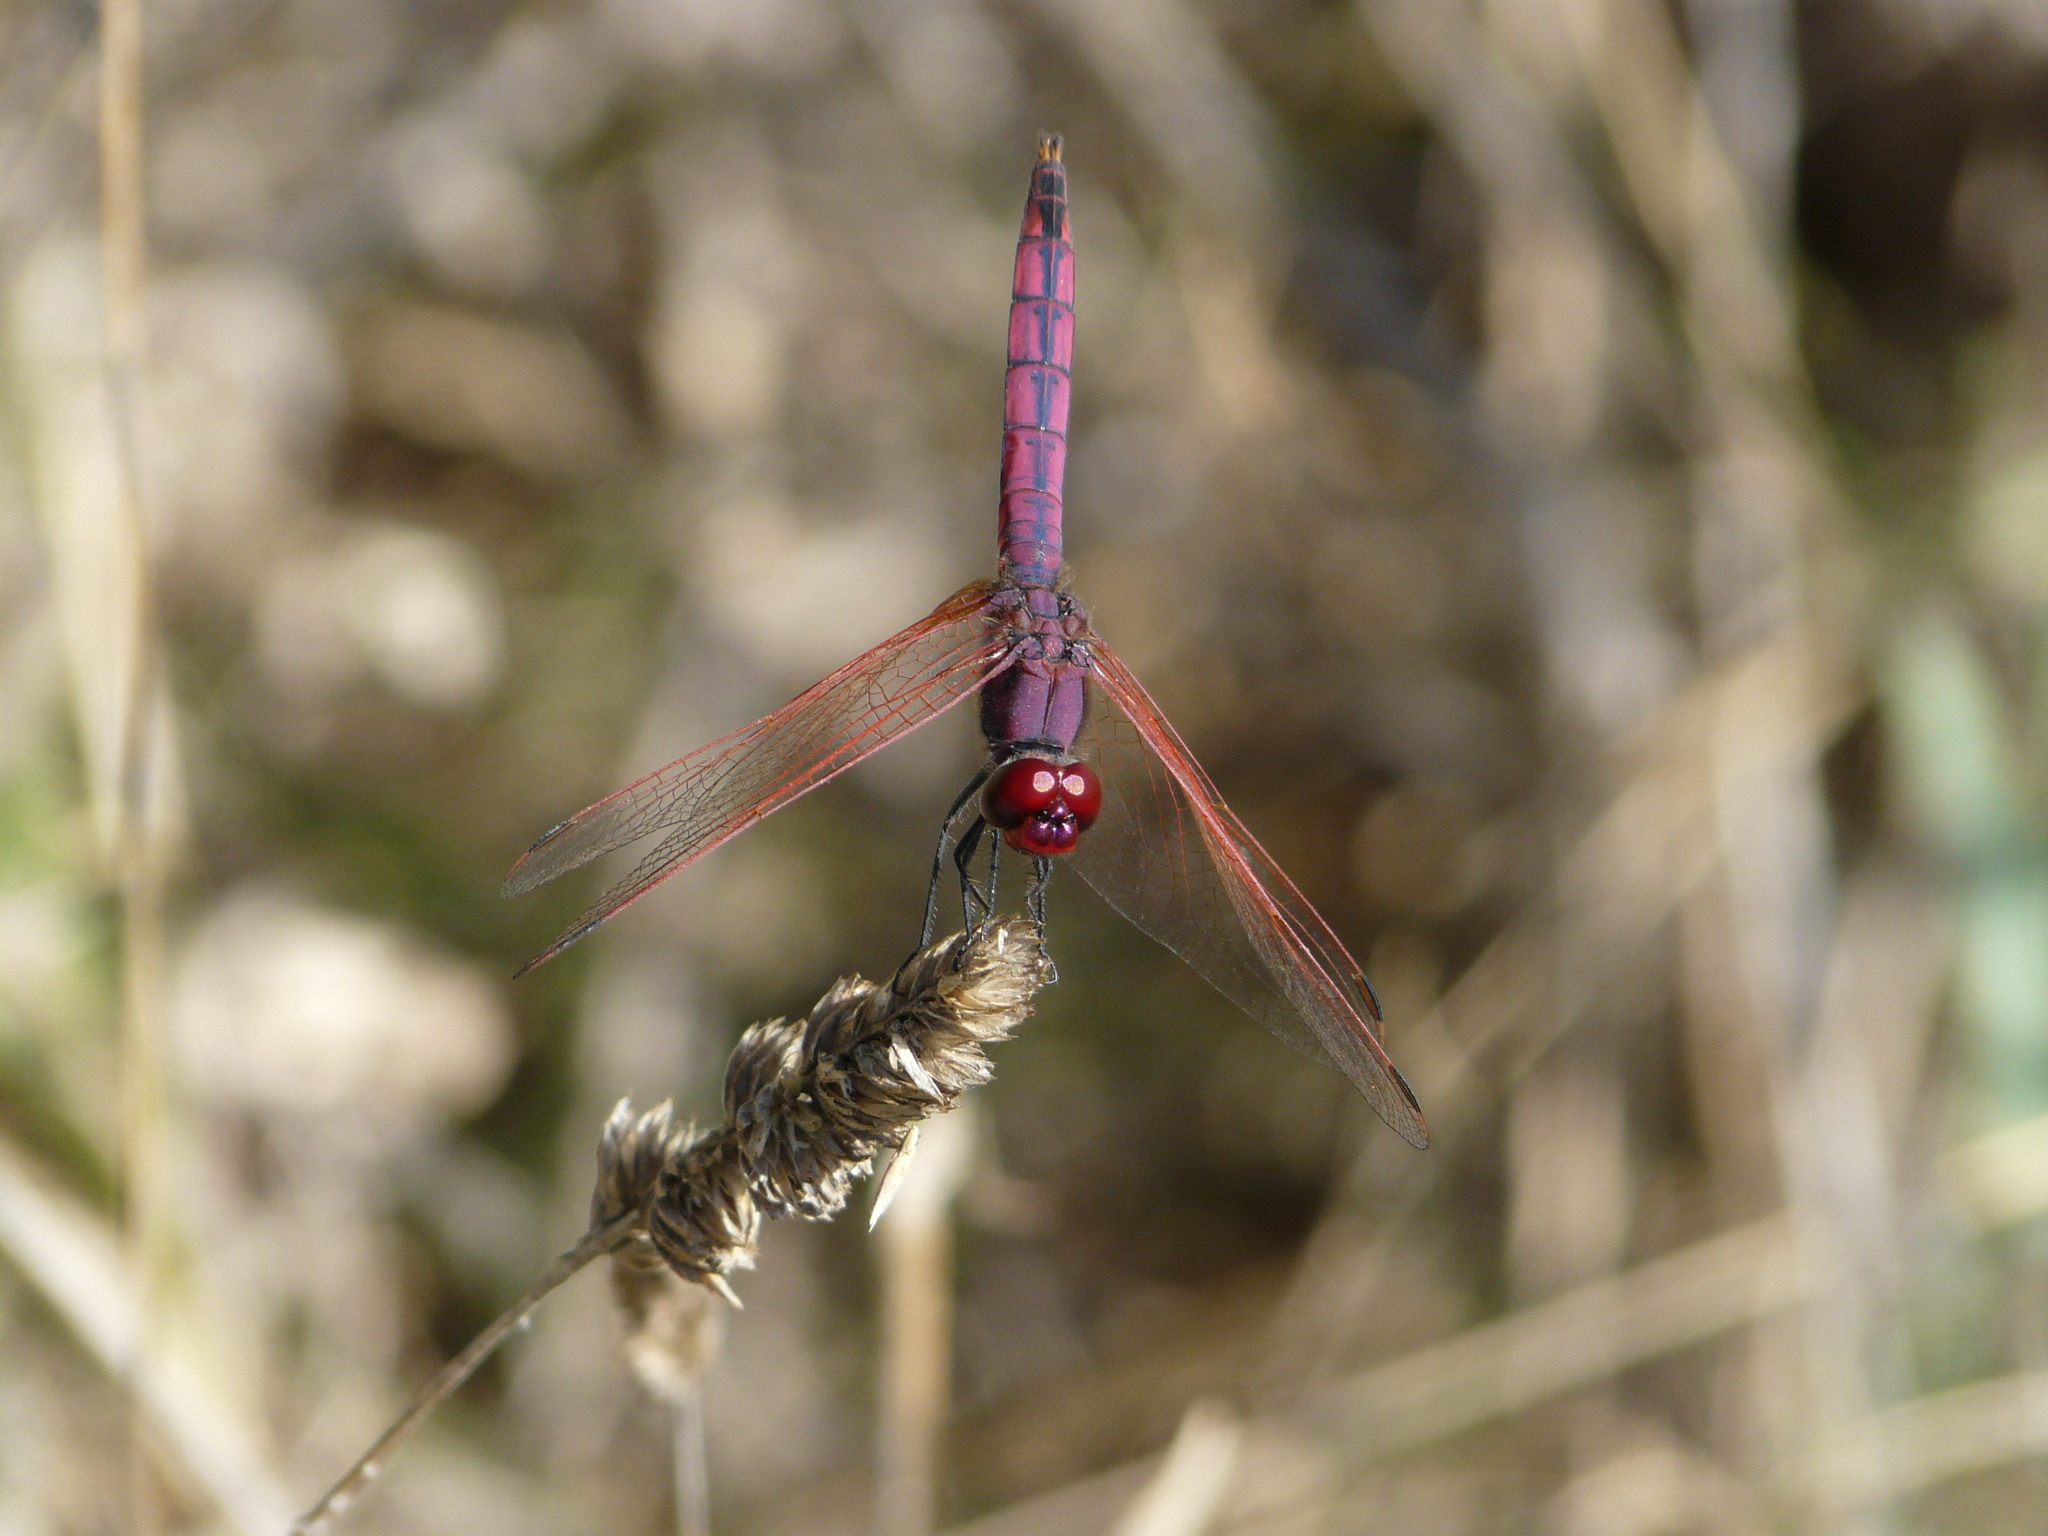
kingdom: Animalia
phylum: Arthropoda
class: Insecta
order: Odonata
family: Libellulidae
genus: Trithemis
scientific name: Trithemis annulata
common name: Violet dropwing
